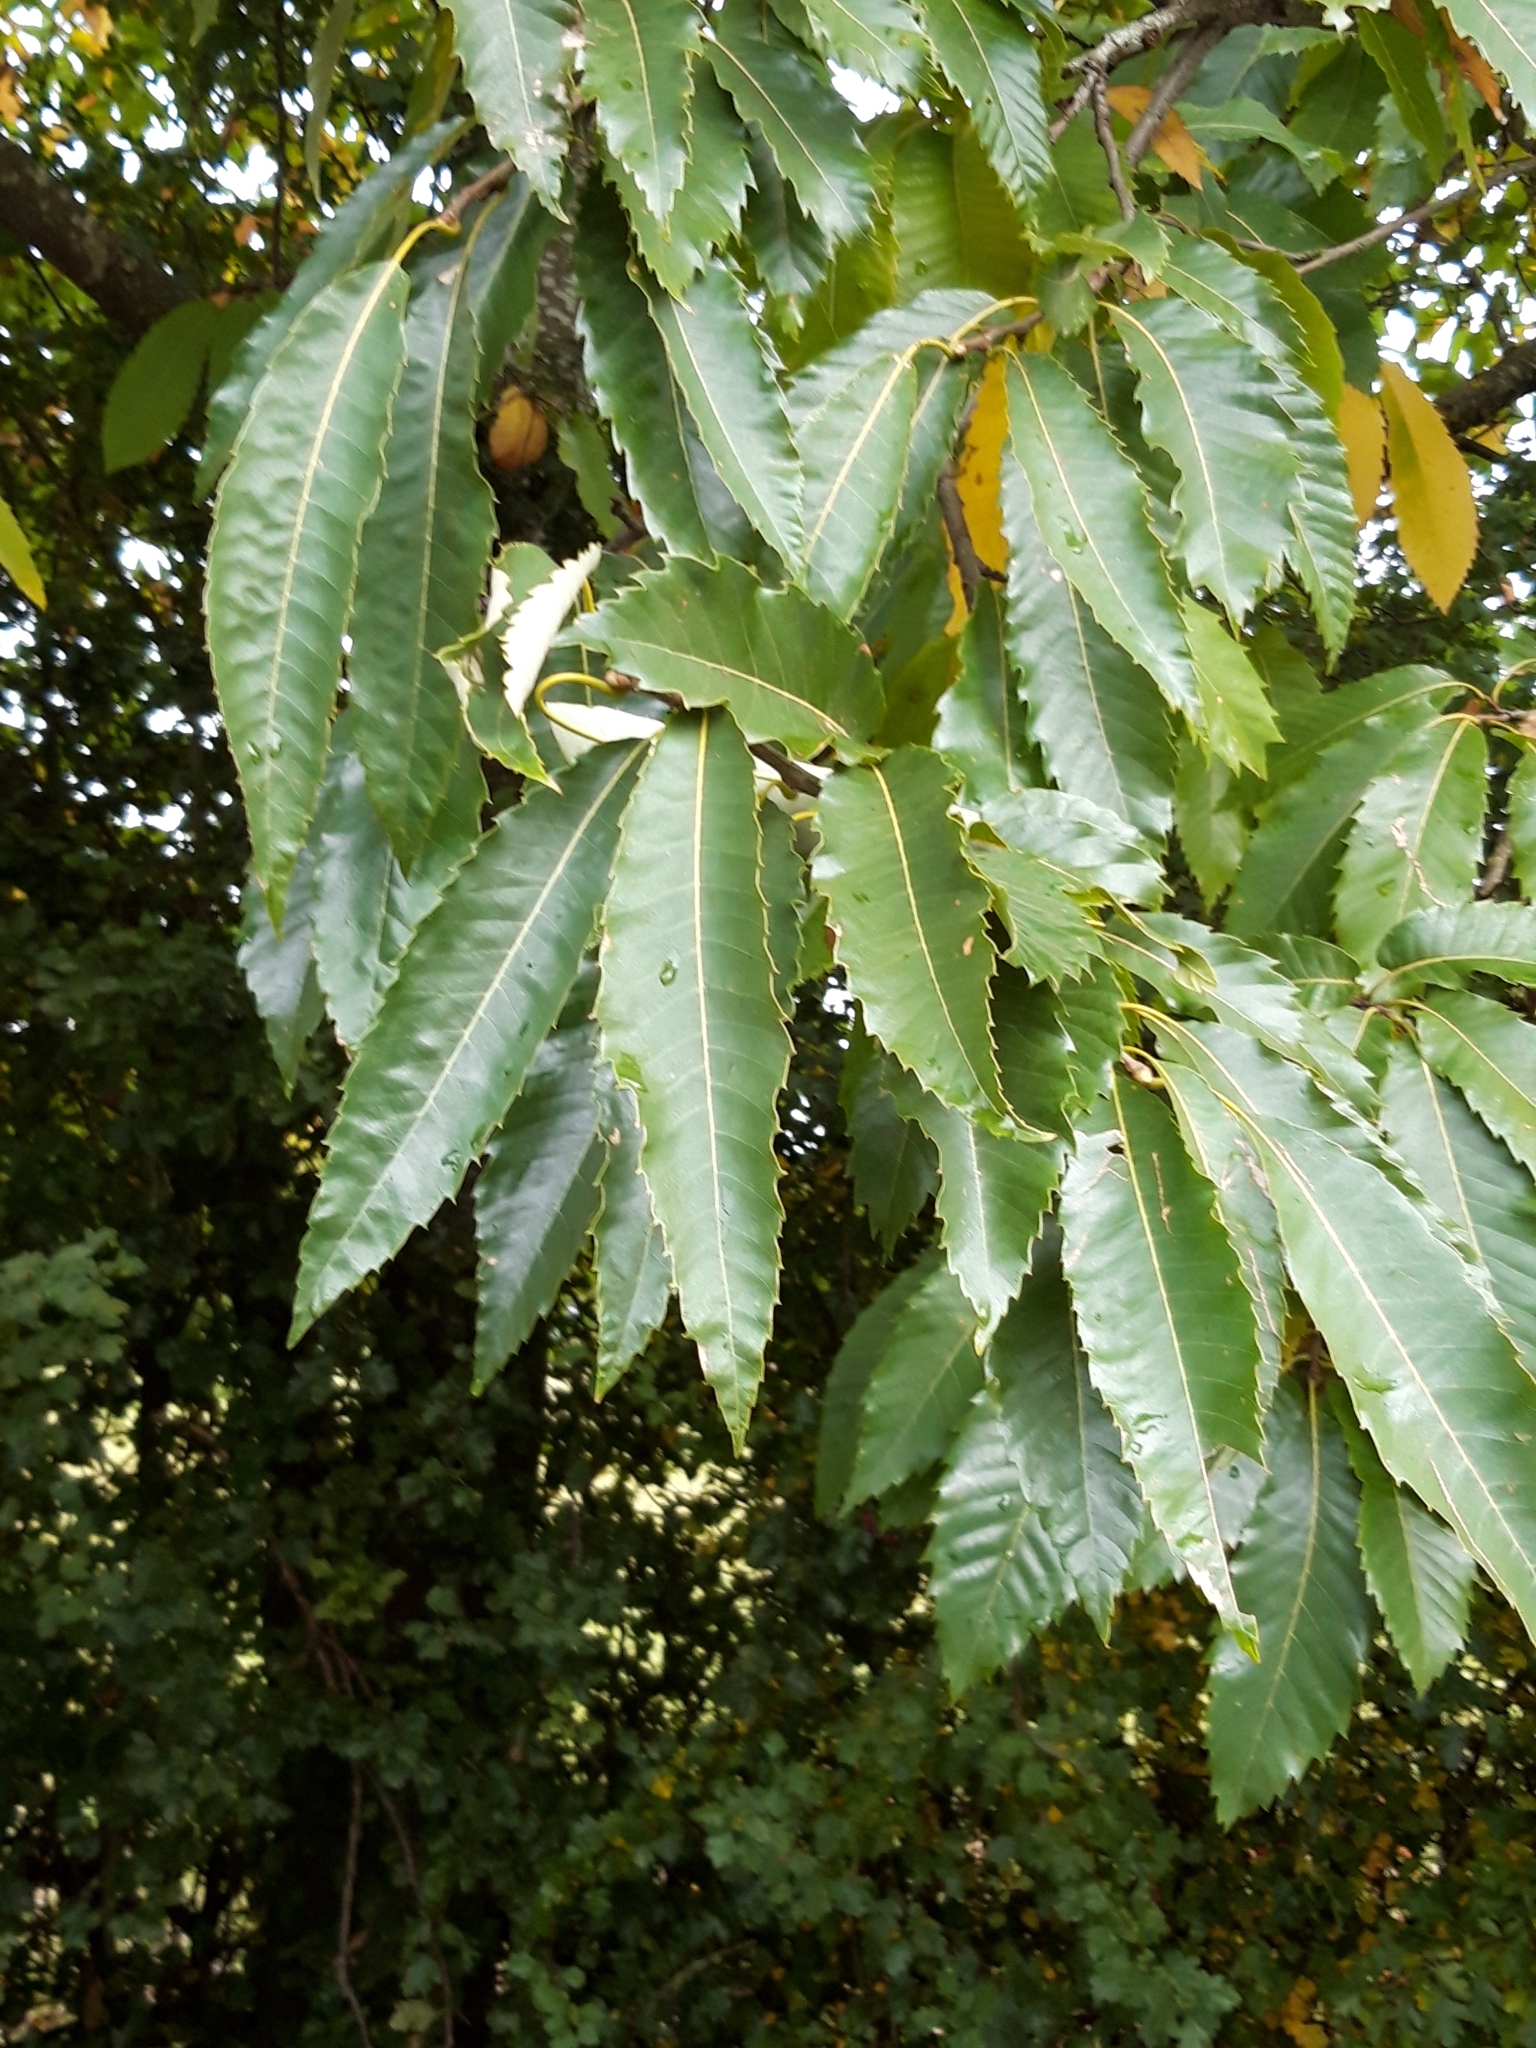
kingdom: Plantae
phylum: Tracheophyta
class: Magnoliopsida
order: Fagales
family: Fagaceae
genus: Castanea
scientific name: Castanea sativa
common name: Sweet chestnut
